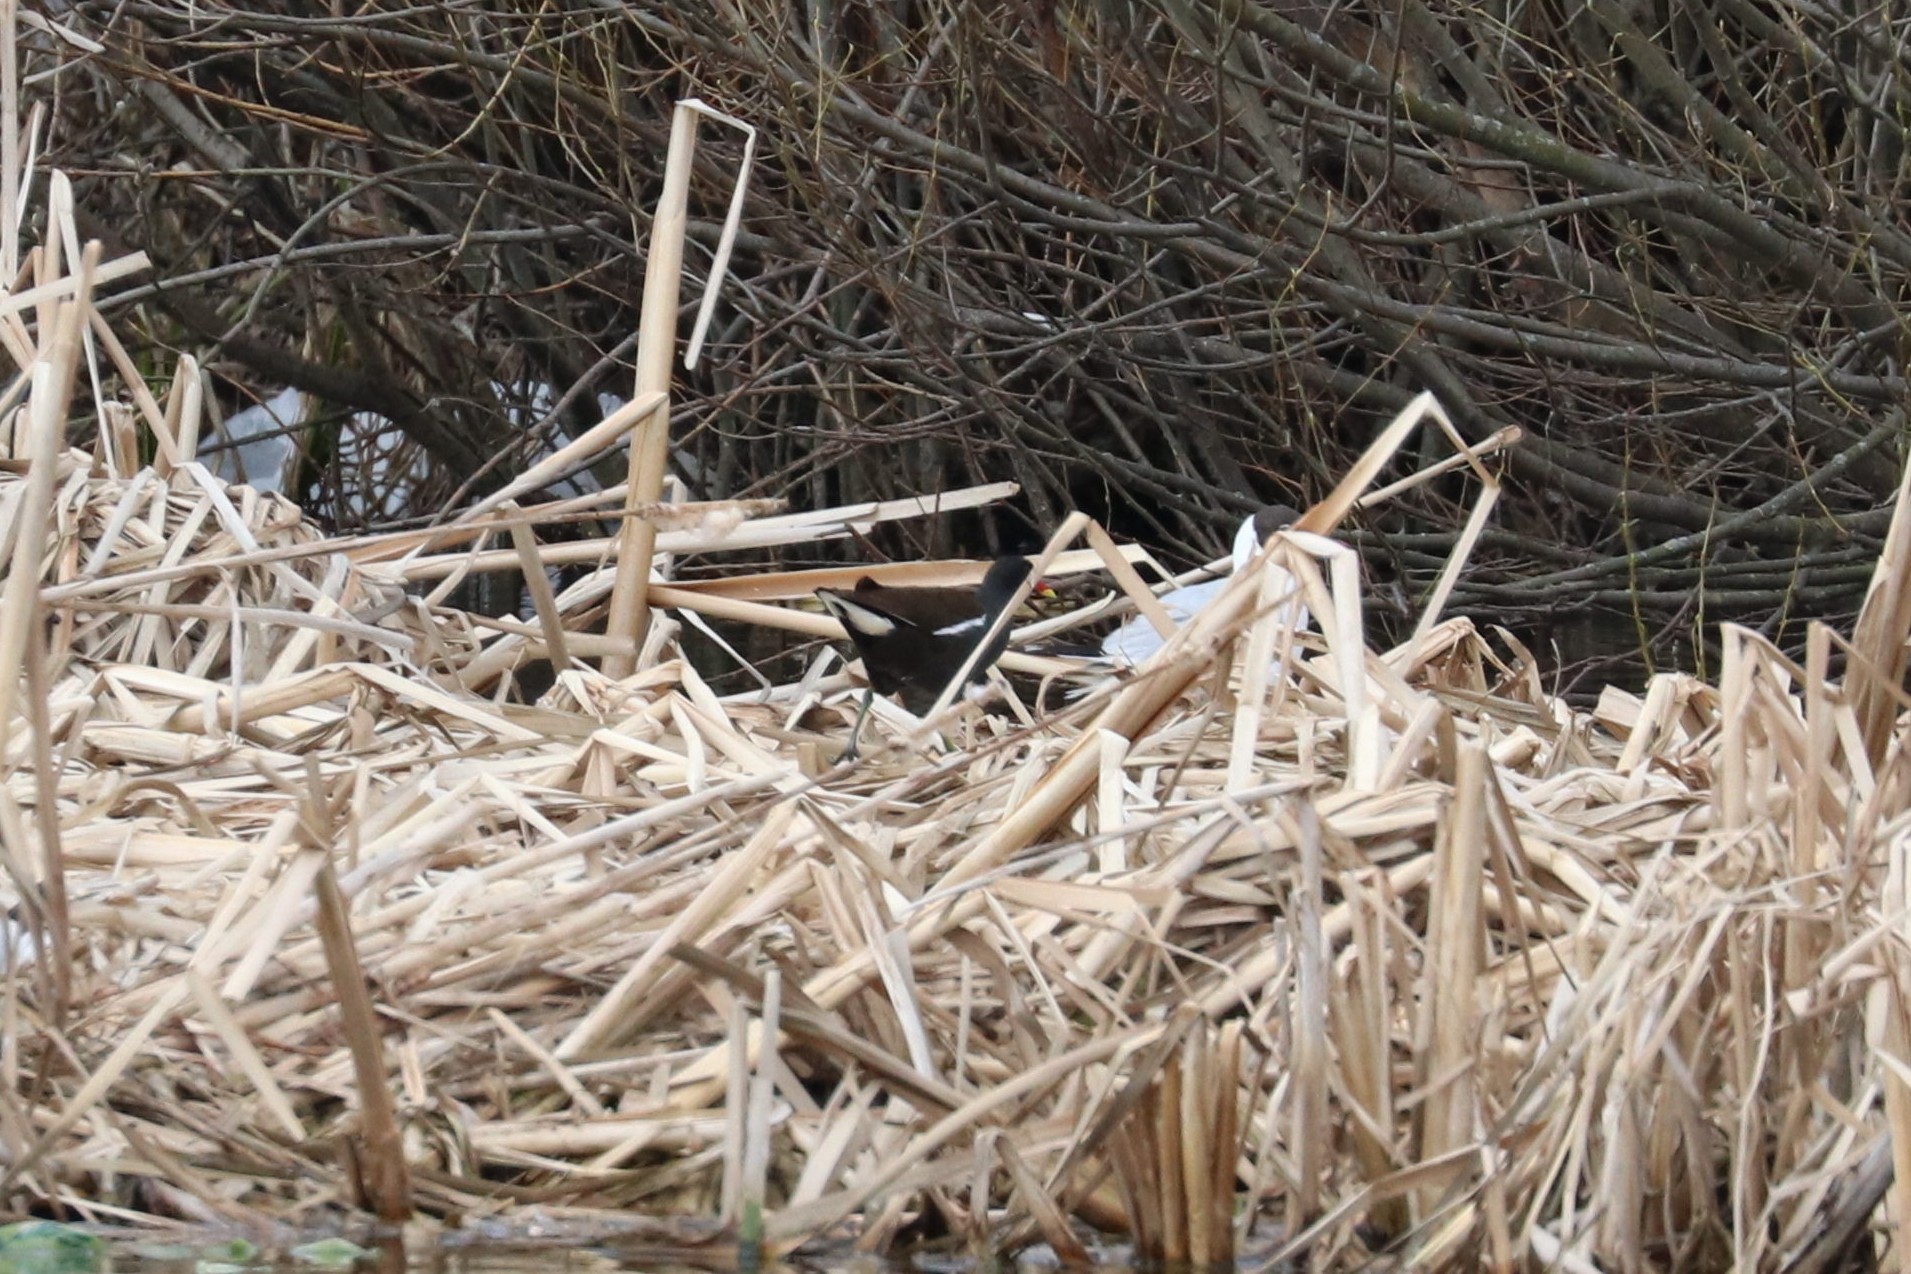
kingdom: Animalia
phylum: Chordata
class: Aves
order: Gruiformes
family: Rallidae
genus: Gallinula
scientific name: Gallinula chloropus
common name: Common moorhen
